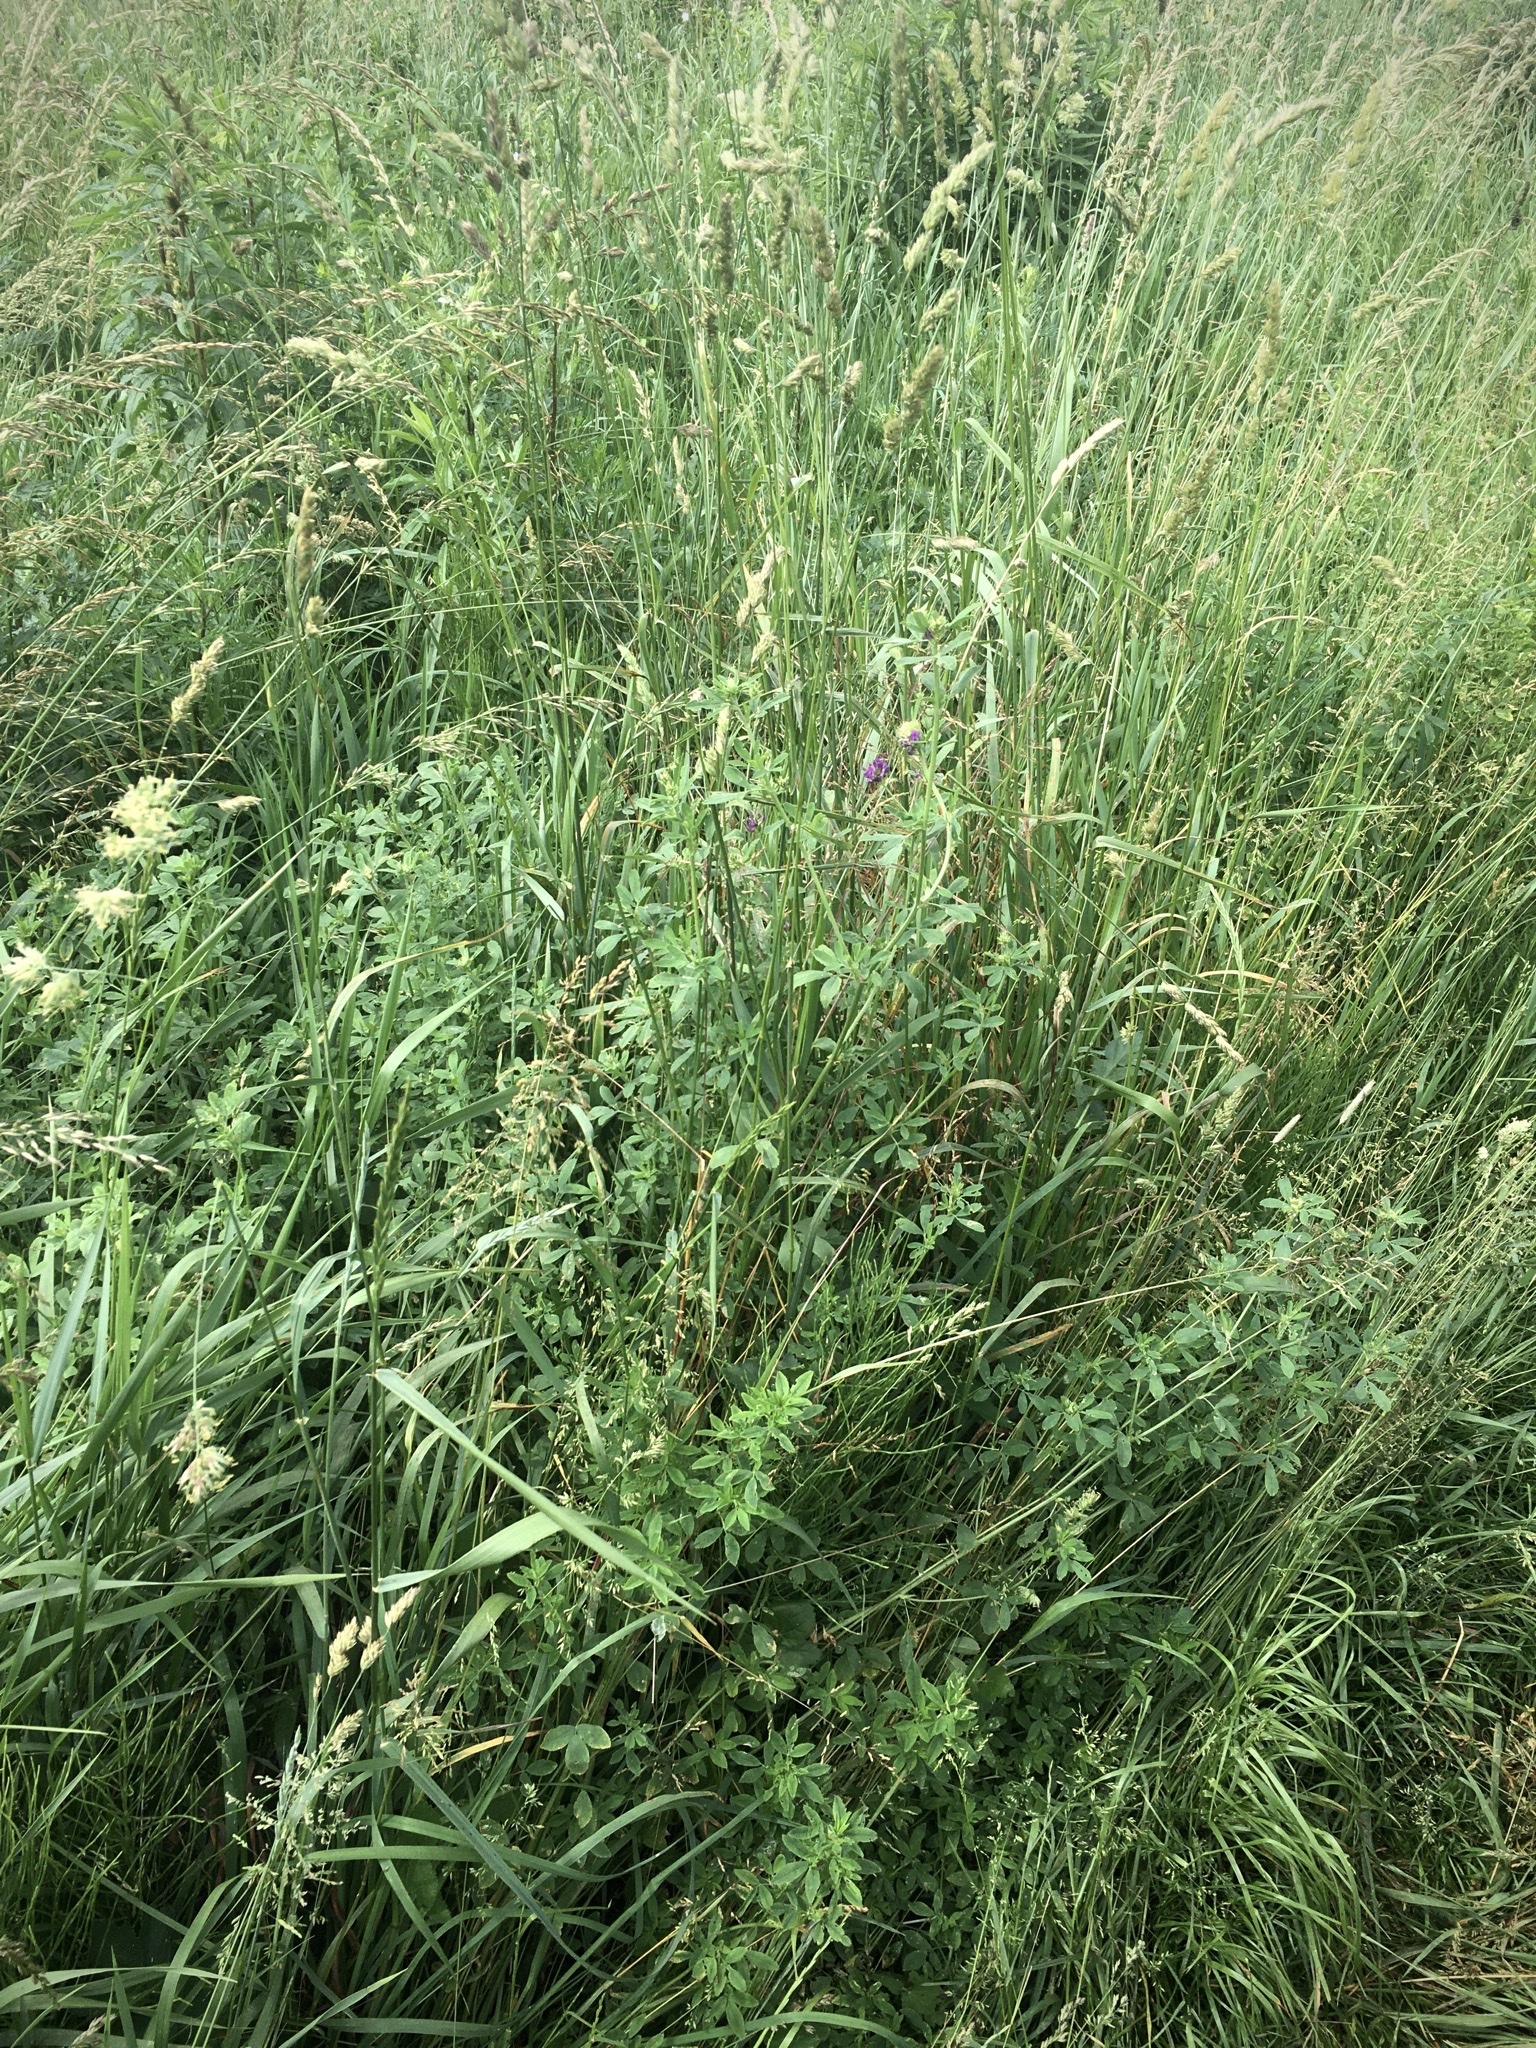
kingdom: Plantae
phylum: Tracheophyta
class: Magnoliopsida
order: Fabales
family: Fabaceae
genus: Medicago
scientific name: Medicago sativa
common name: Alfalfa
